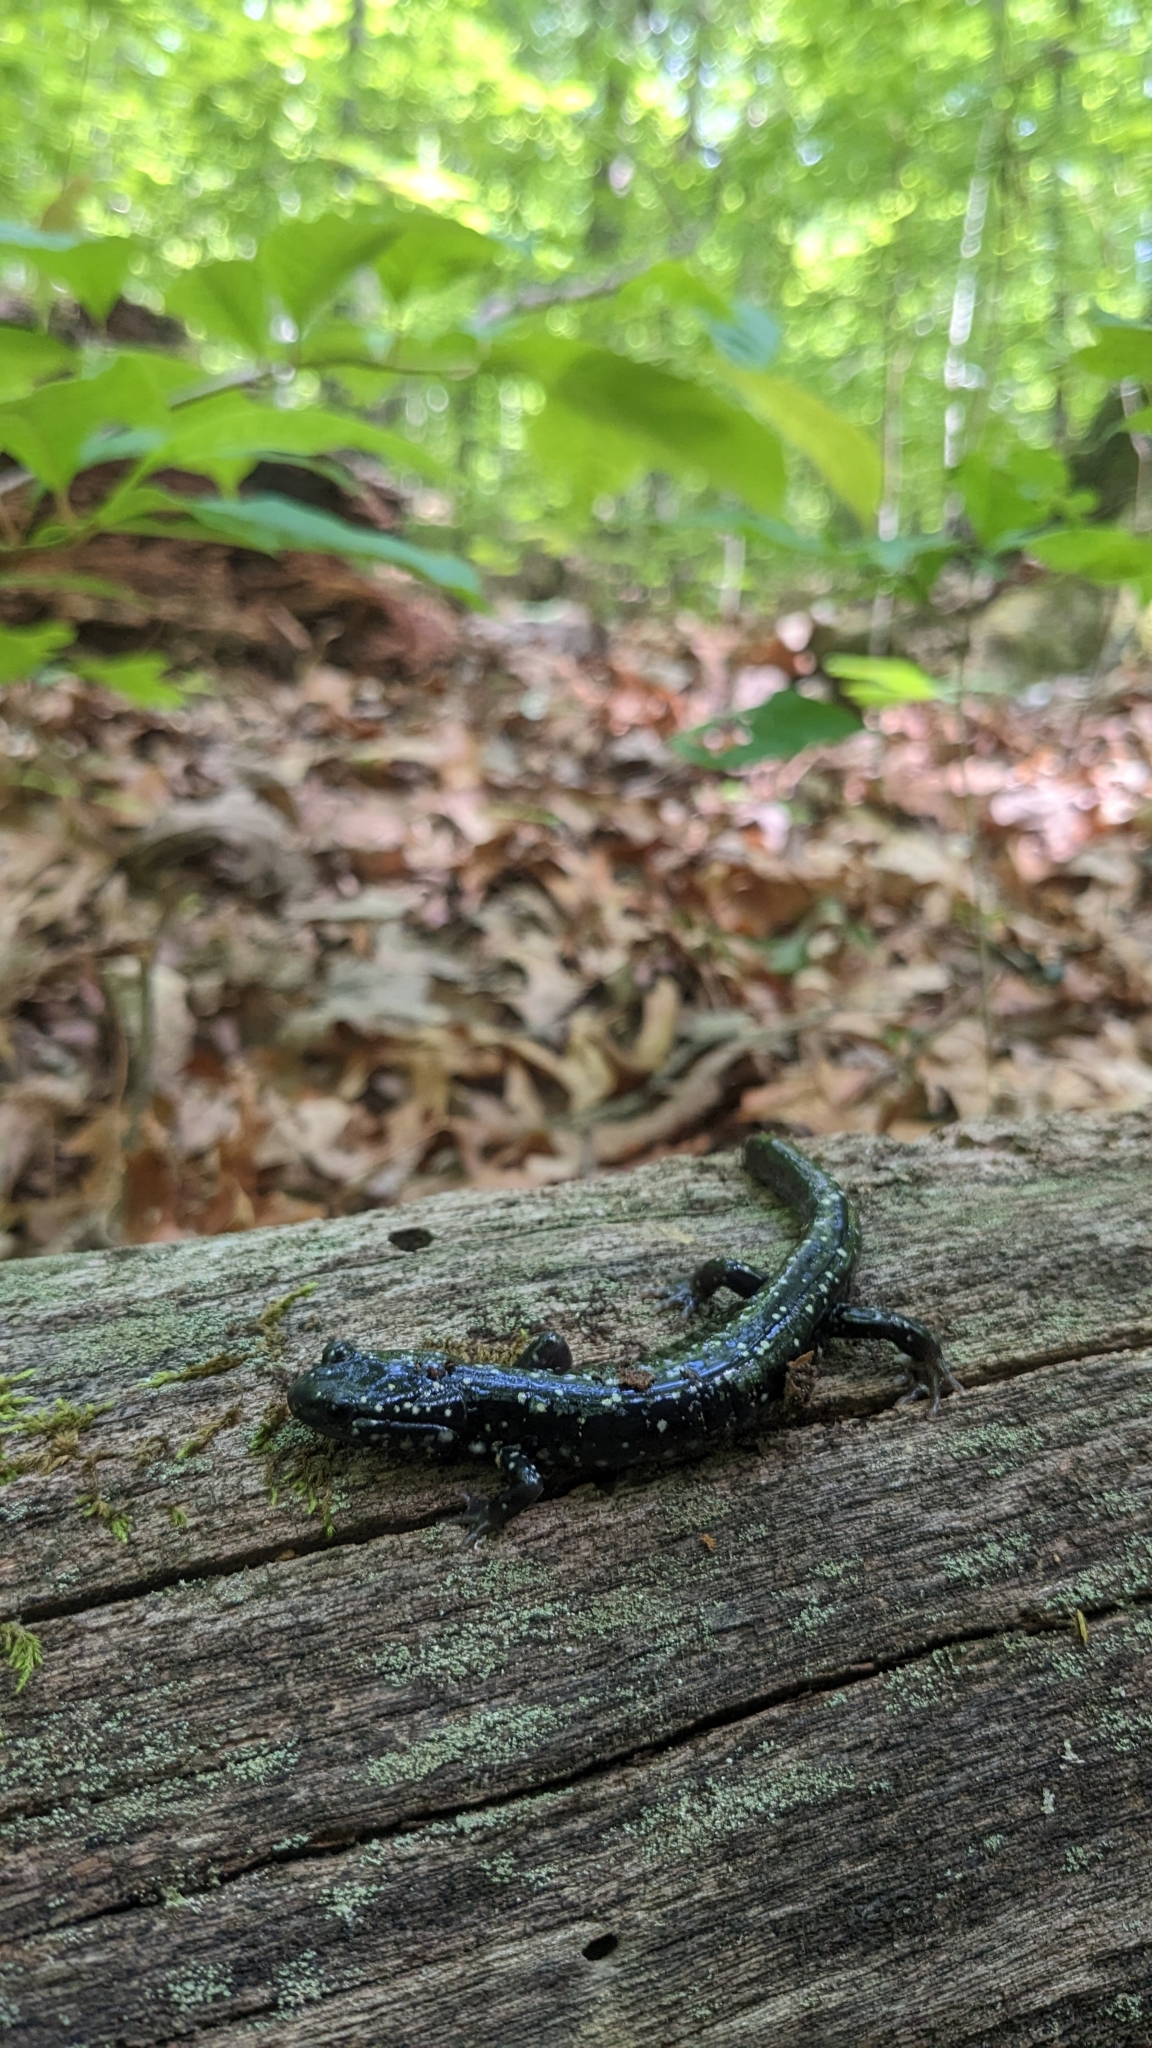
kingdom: Animalia
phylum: Chordata
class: Amphibia
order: Caudata
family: Plethodontidae
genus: Plethodon
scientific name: Plethodon glutinosus
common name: Northern slimy salamander
